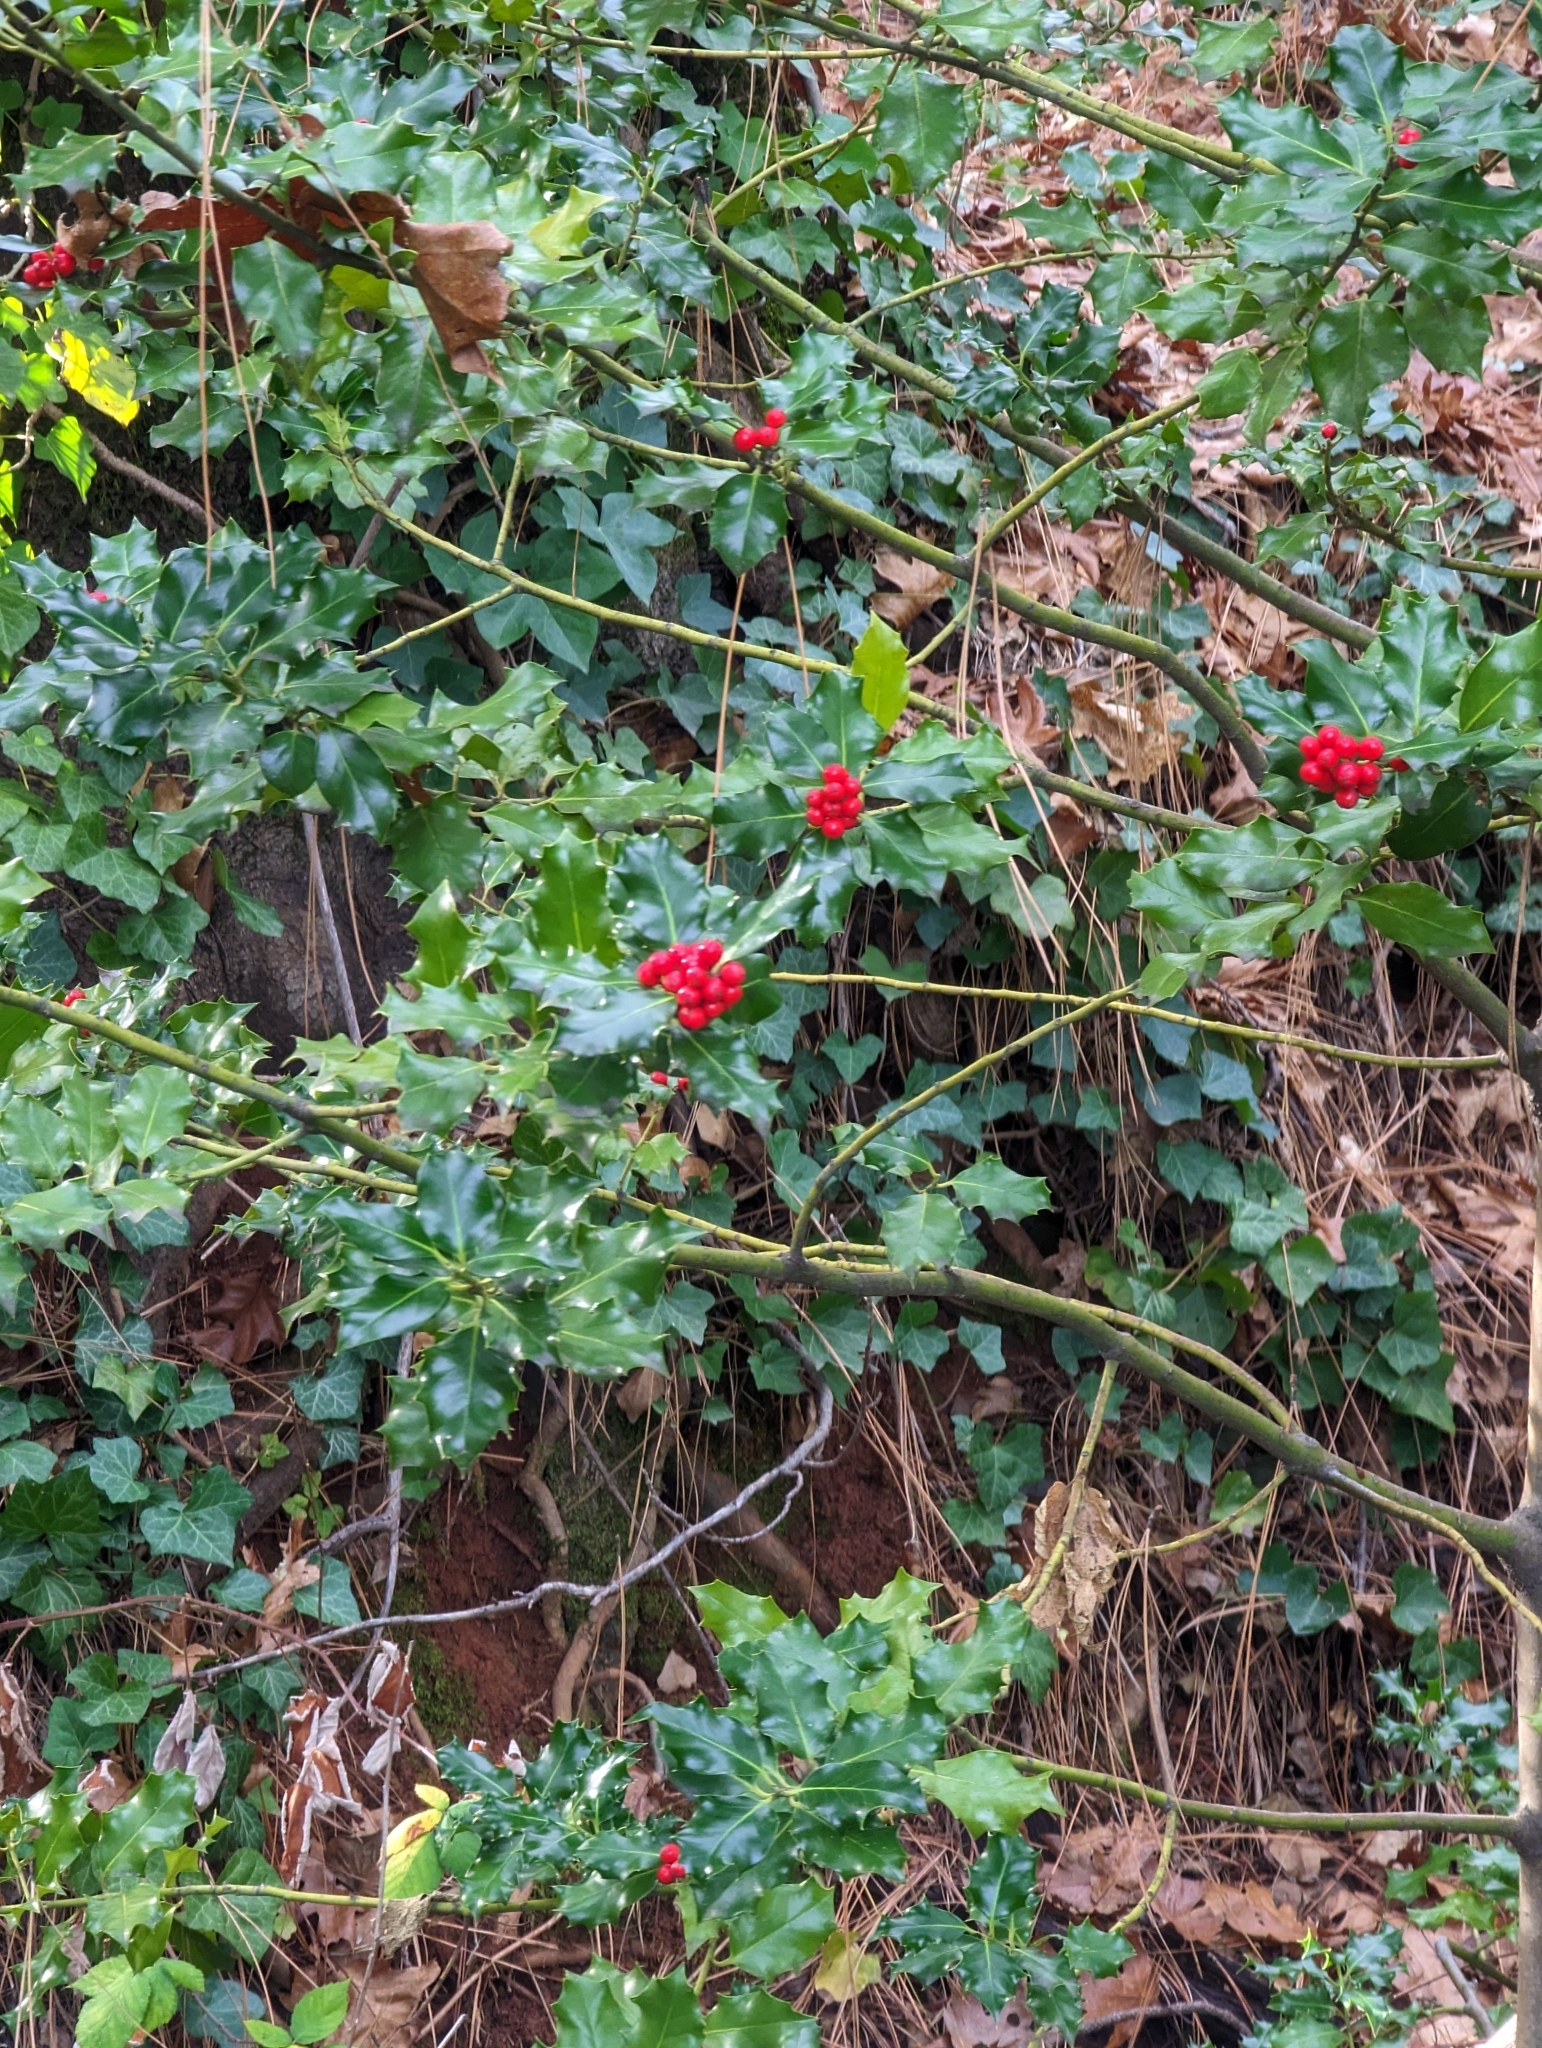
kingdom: Plantae
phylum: Tracheophyta
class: Magnoliopsida
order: Aquifoliales
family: Aquifoliaceae
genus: Ilex
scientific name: Ilex aquifolium
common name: English holly
